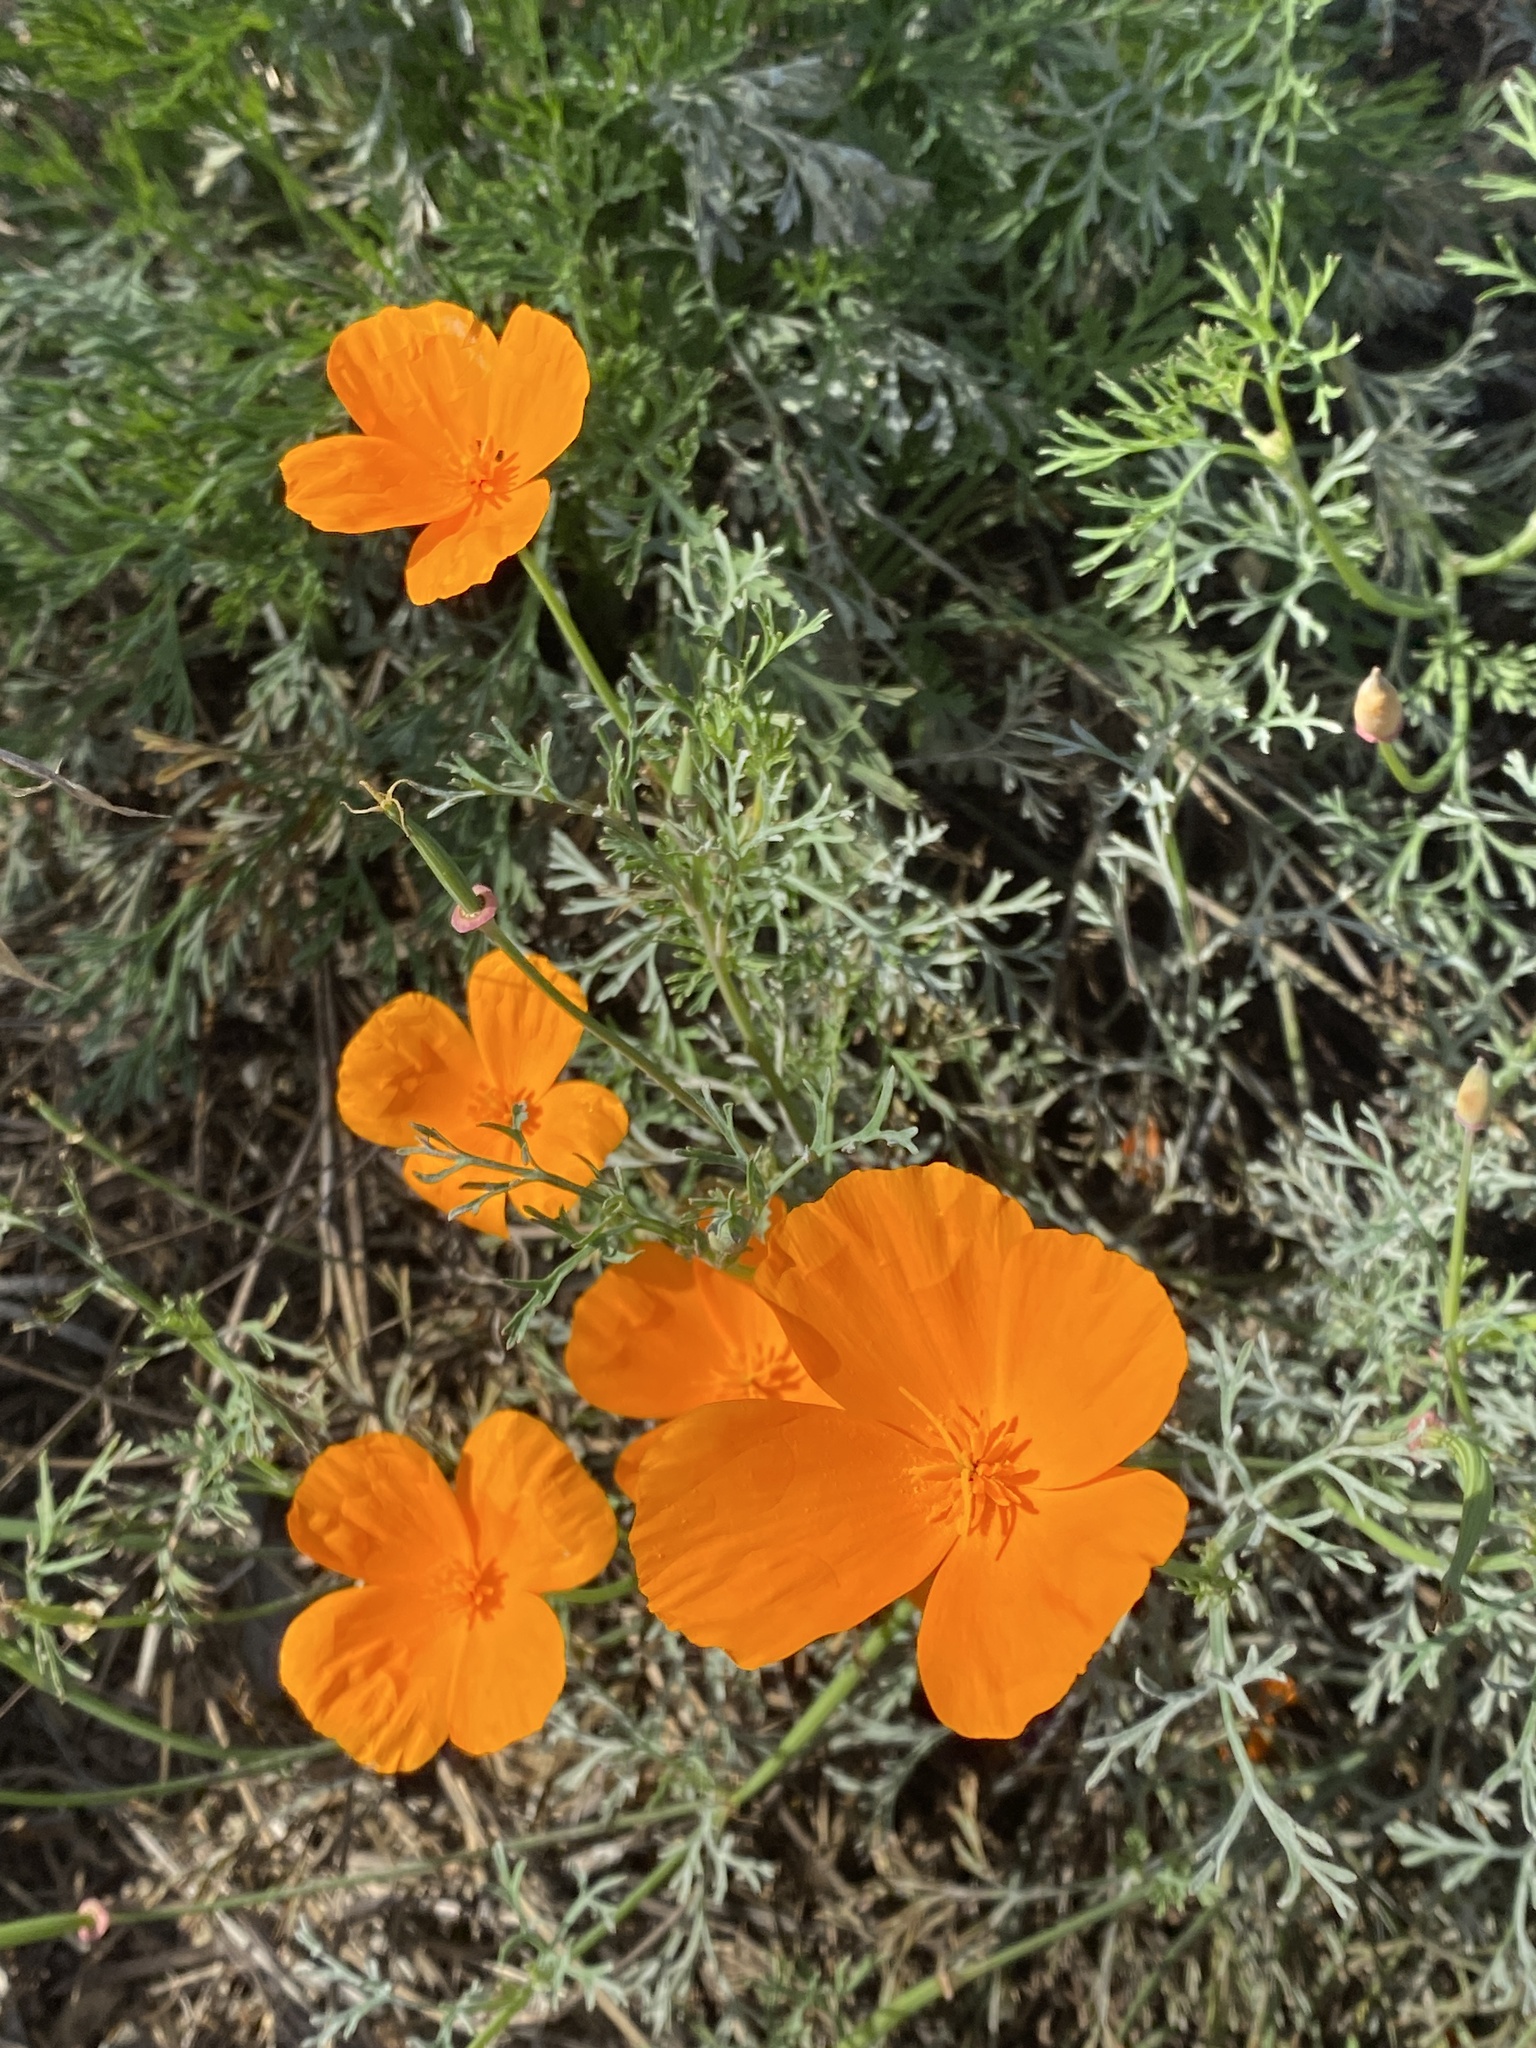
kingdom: Plantae
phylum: Tracheophyta
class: Magnoliopsida
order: Ranunculales
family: Papaveraceae
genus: Eschscholzia
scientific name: Eschscholzia californica
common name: California poppy
